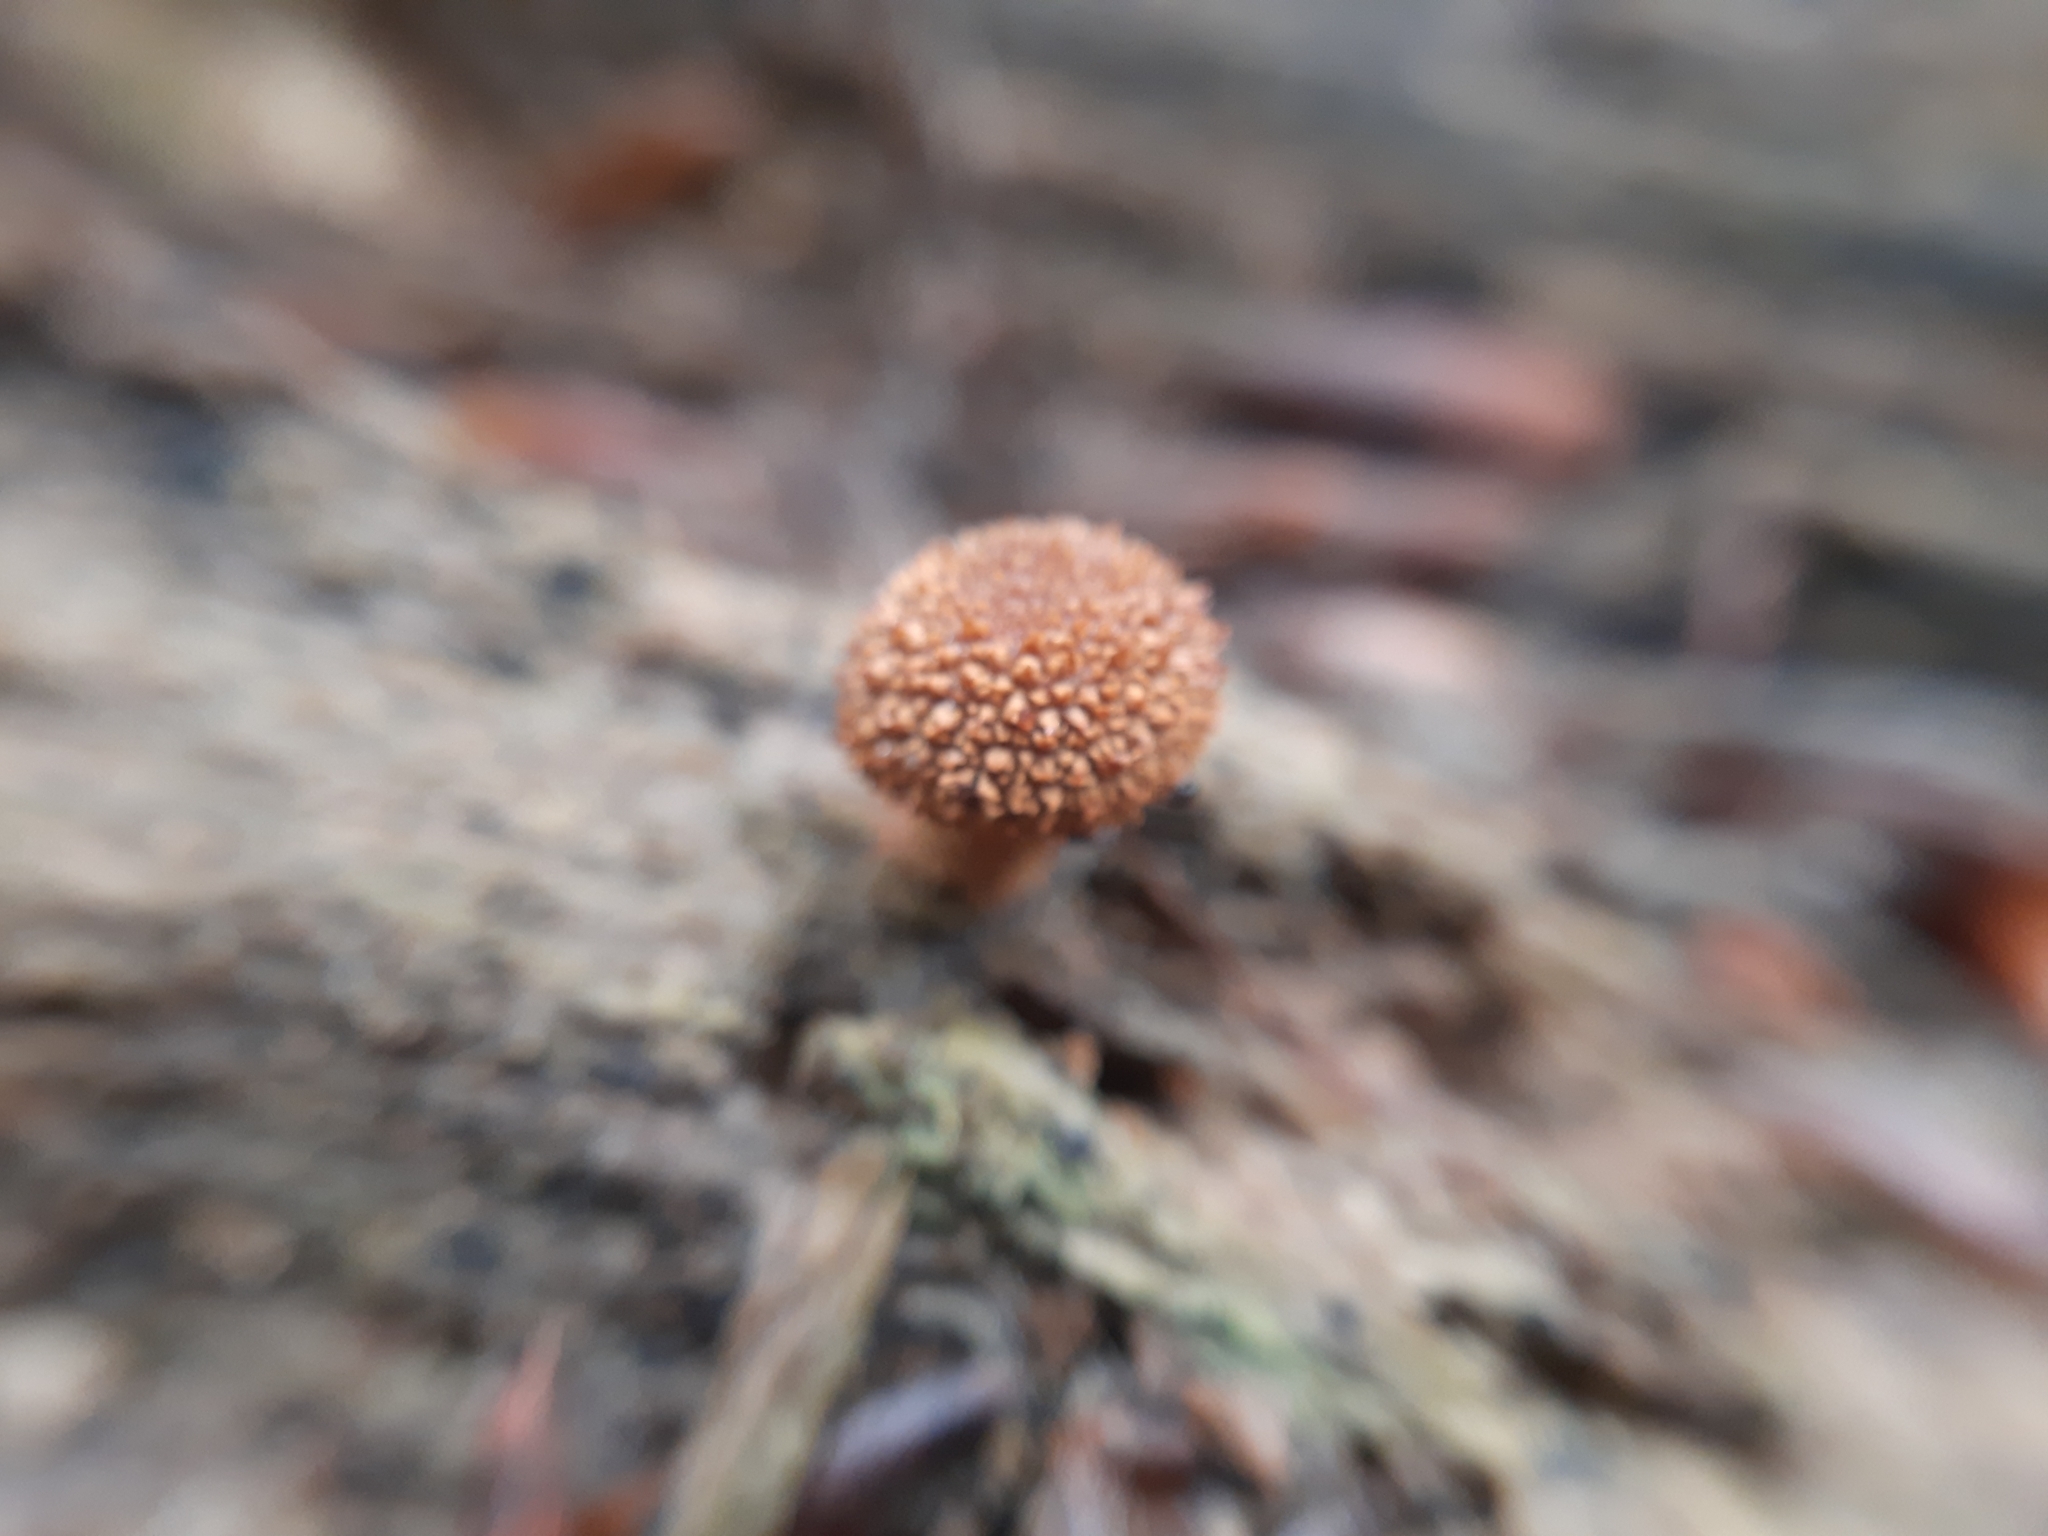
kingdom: Fungi
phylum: Basidiomycota
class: Agaricomycetes
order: Agaricales
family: Tubariaceae
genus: Flammulaster
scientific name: Flammulaster muricatus
